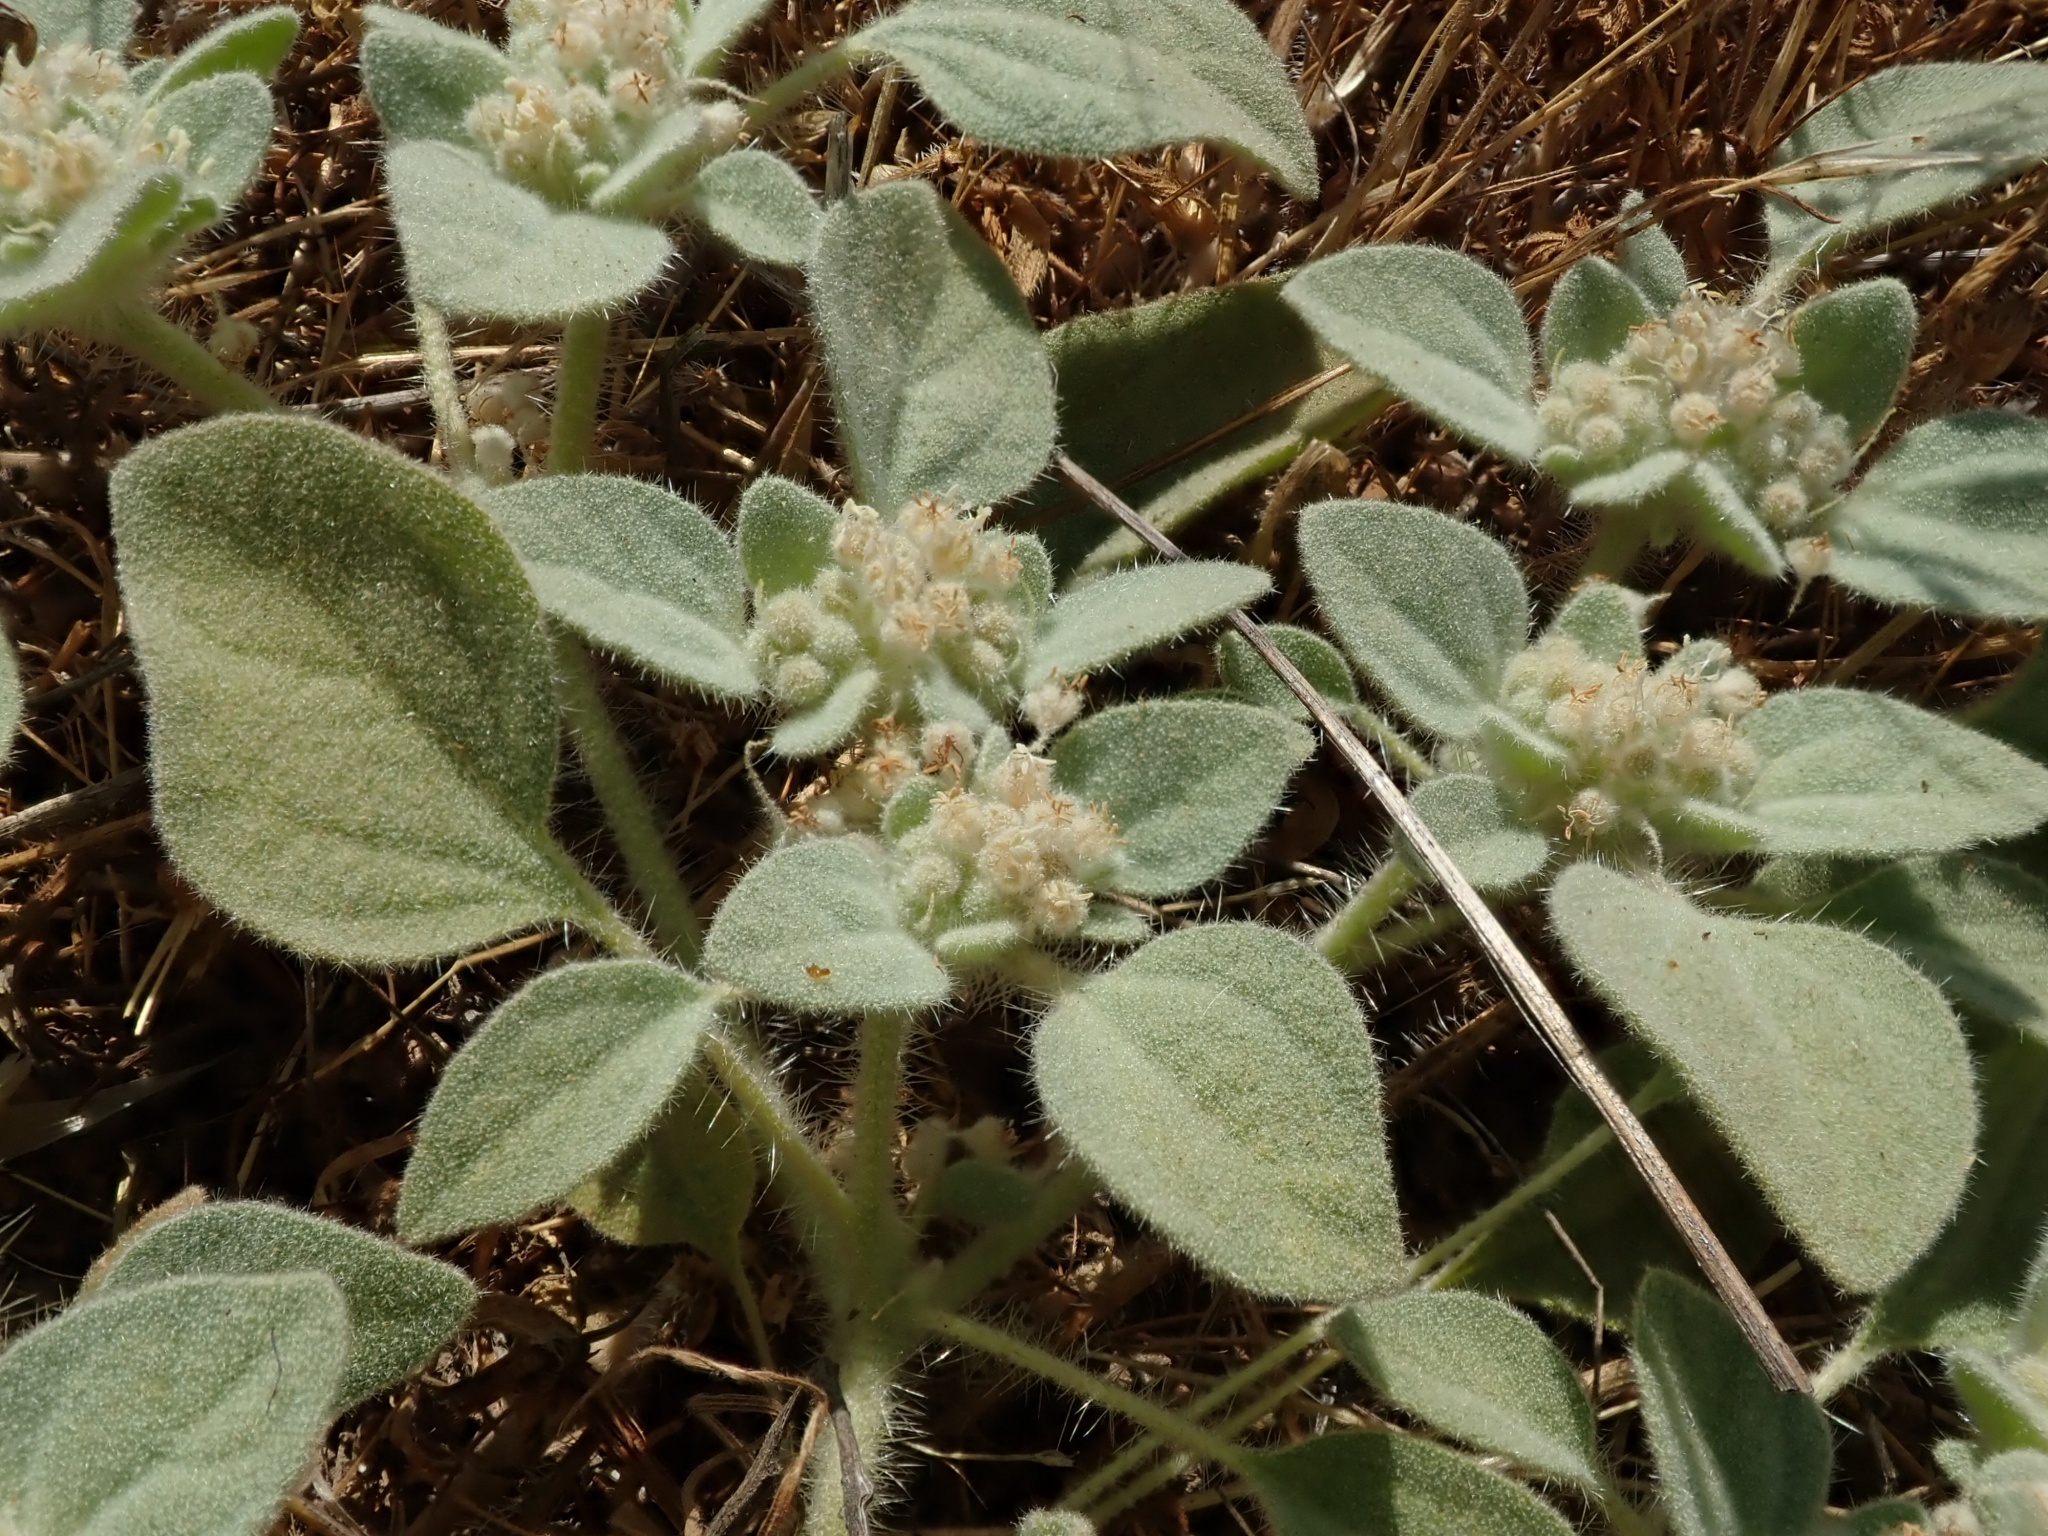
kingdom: Plantae
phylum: Tracheophyta
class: Magnoliopsida
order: Malpighiales
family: Euphorbiaceae
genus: Croton
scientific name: Croton setiger
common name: Dove weed
